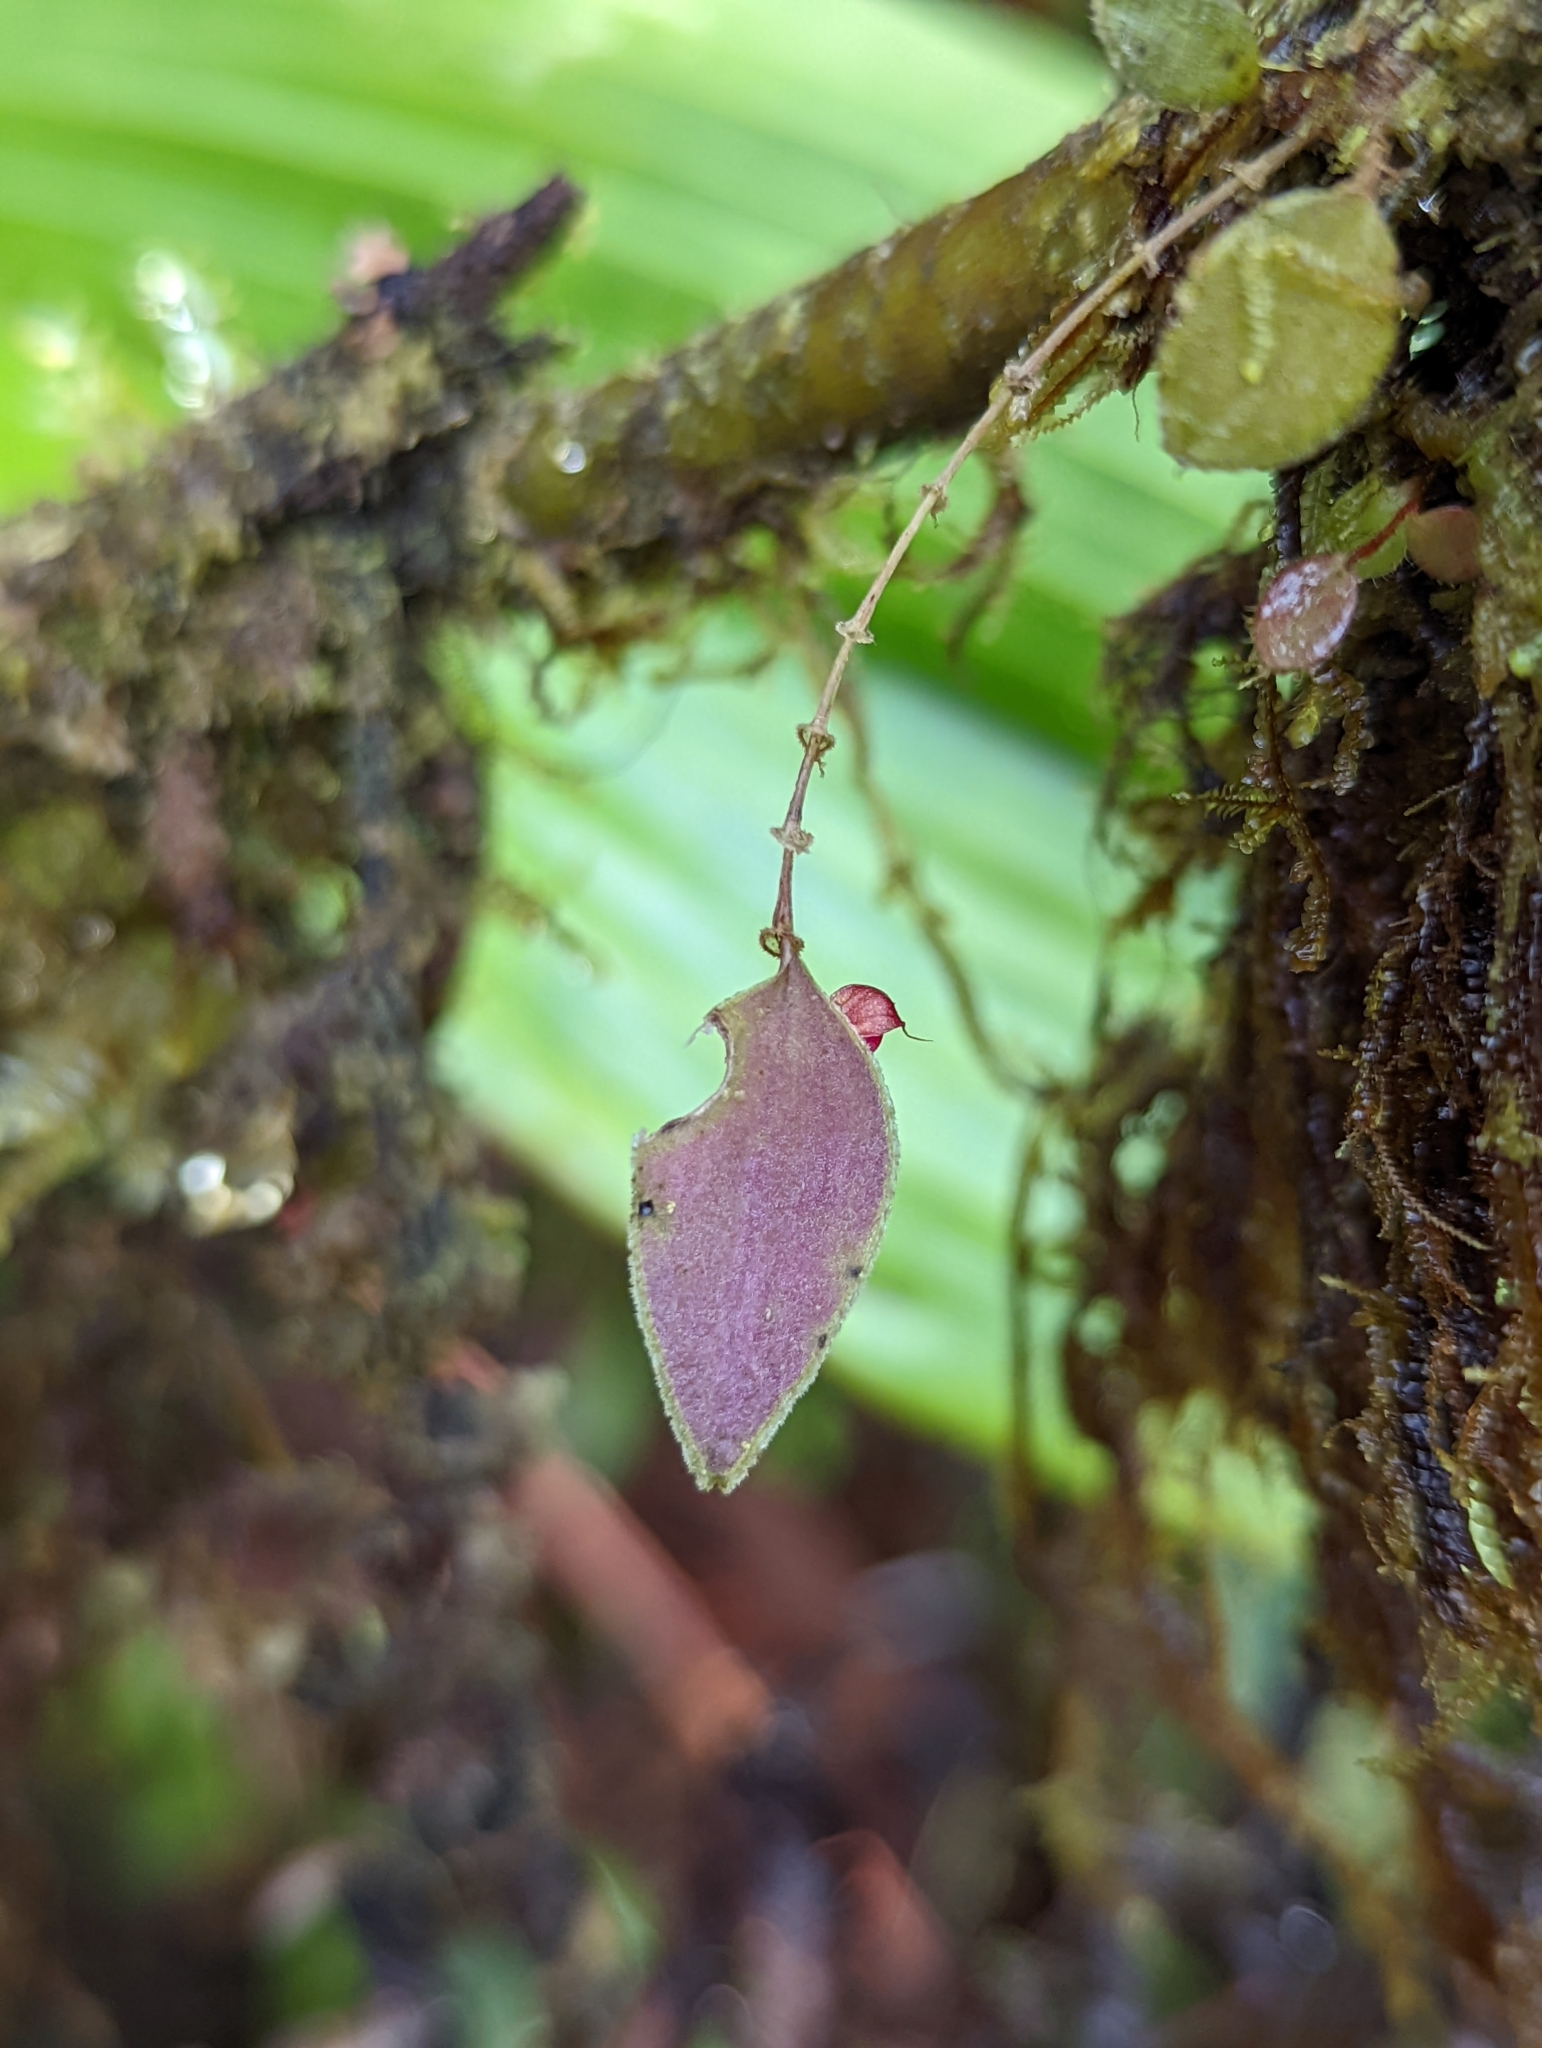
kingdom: Plantae
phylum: Tracheophyta
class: Liliopsida
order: Asparagales
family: Orchidaceae
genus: Lepanthes
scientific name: Lepanthes lycocephala
